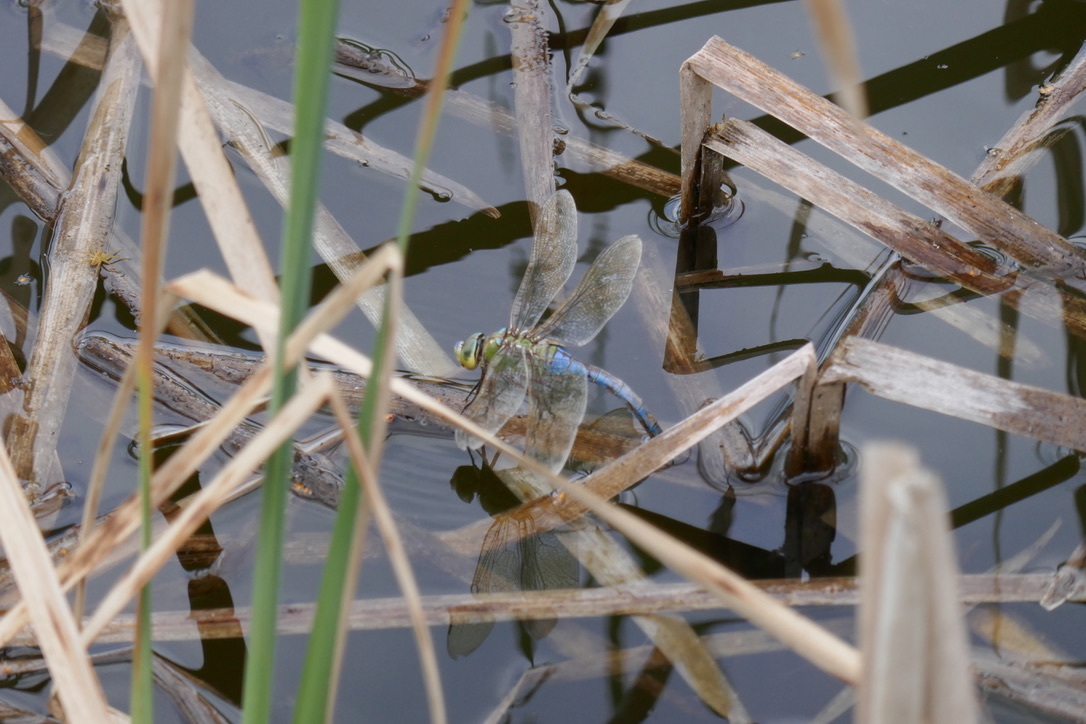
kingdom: Animalia
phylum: Arthropoda
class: Insecta
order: Odonata
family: Aeshnidae
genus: Anax
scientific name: Anax imperator
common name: Emperor dragonfly
